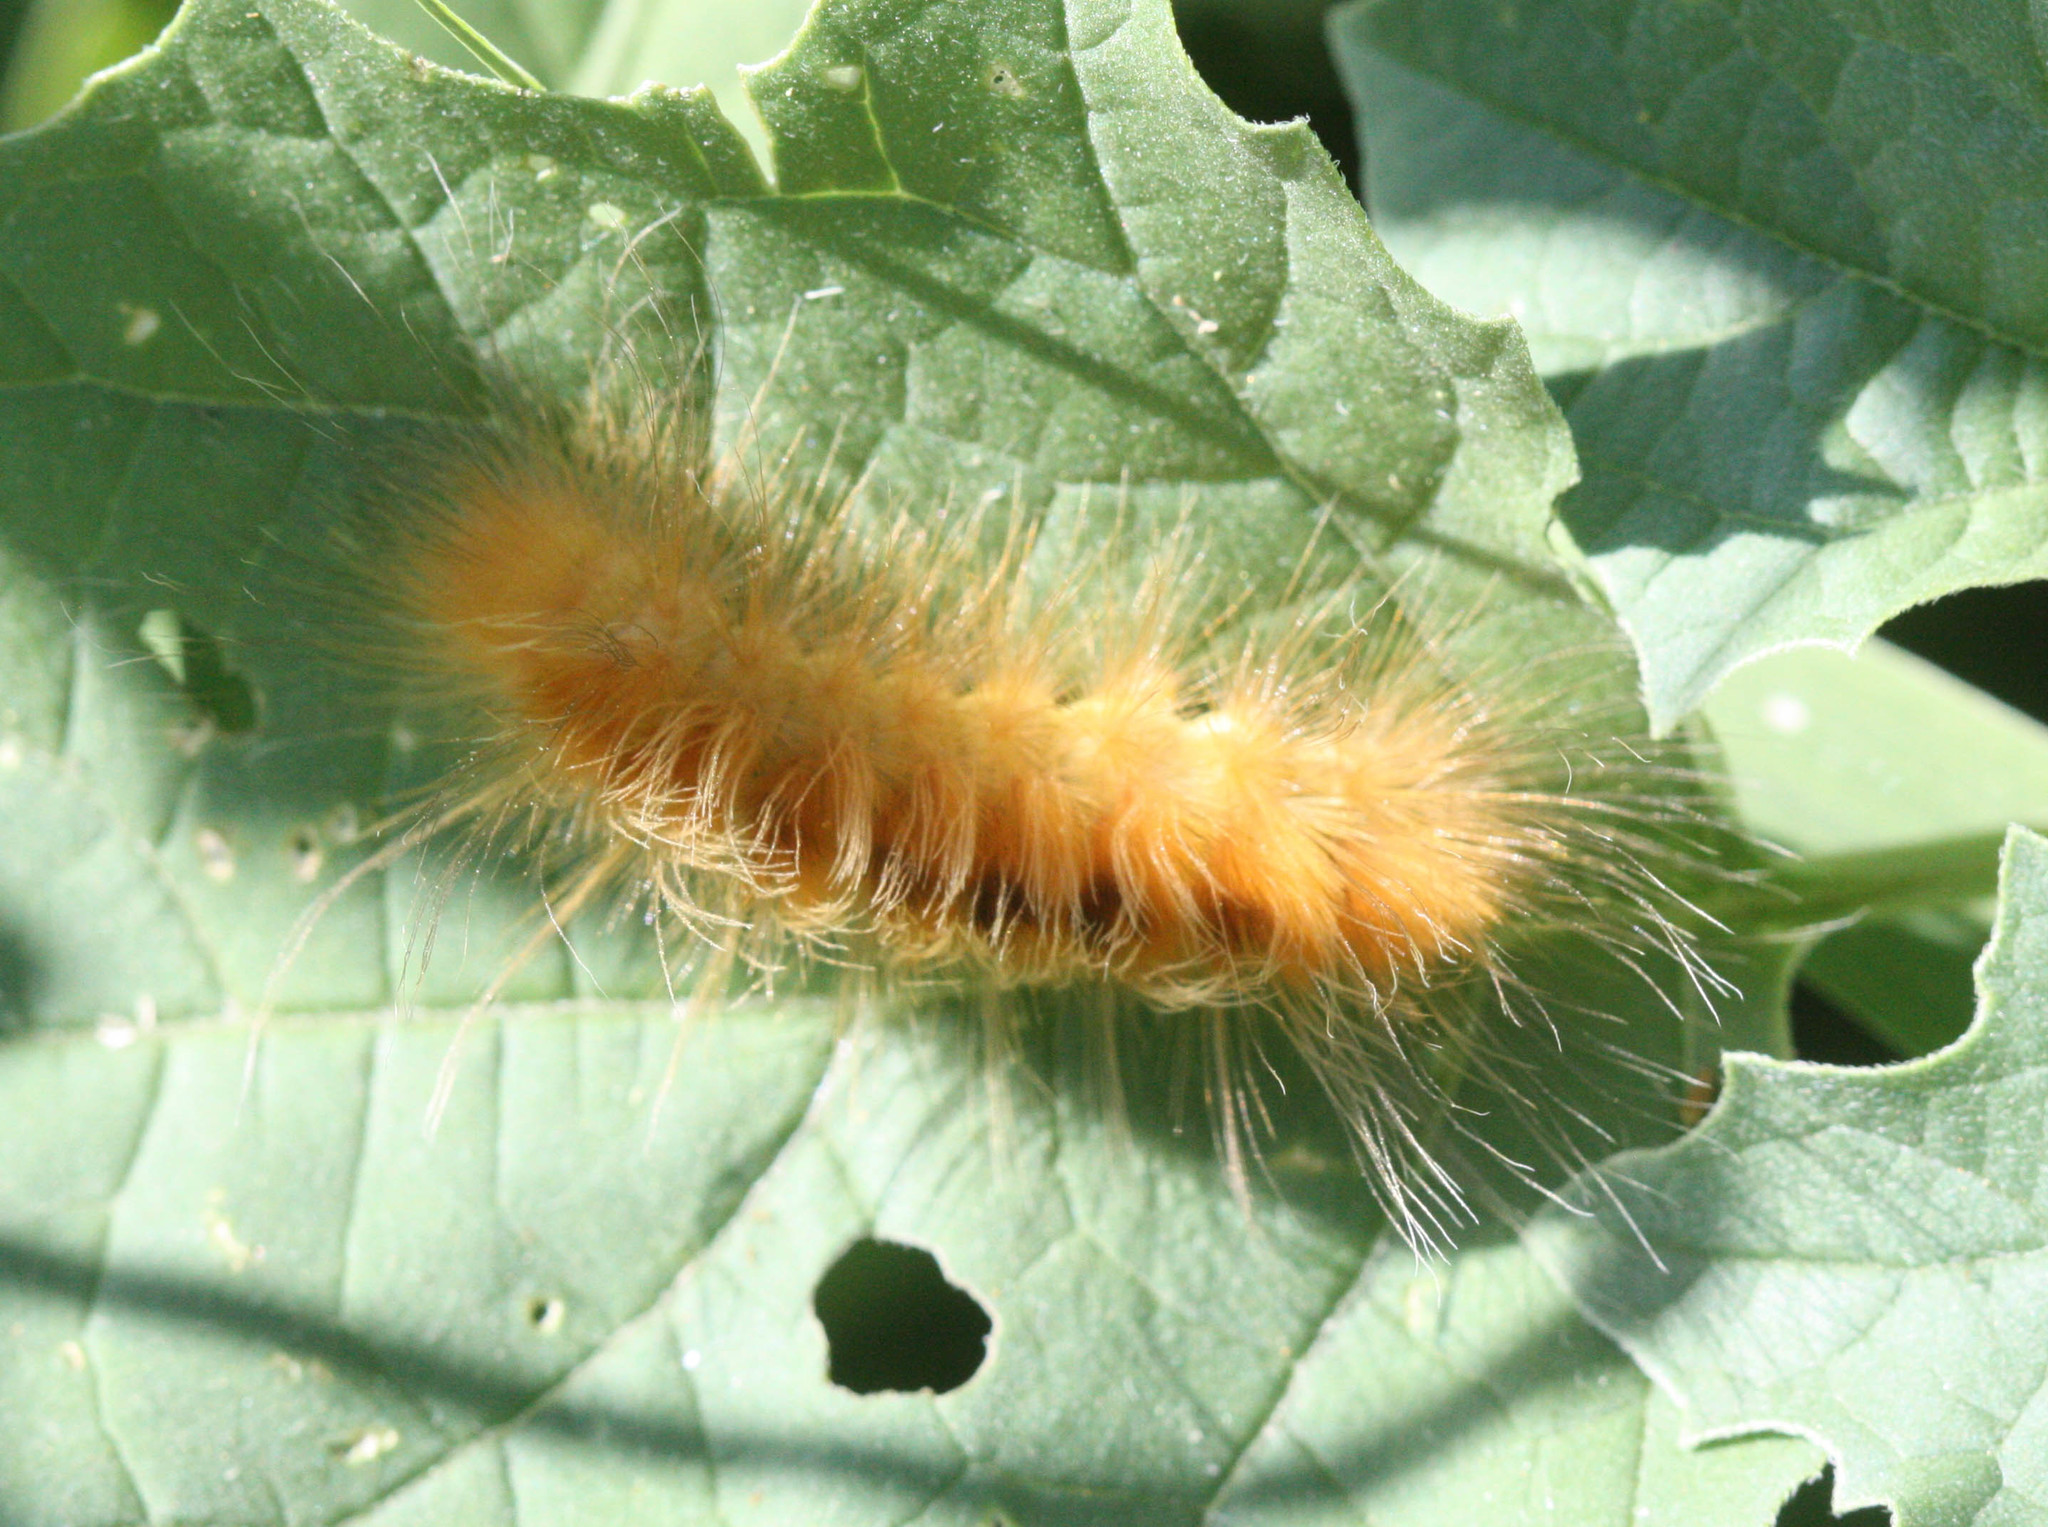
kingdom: Animalia
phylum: Arthropoda
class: Insecta
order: Lepidoptera
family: Erebidae
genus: Pygarctia
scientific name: Pygarctia roseicapitis
